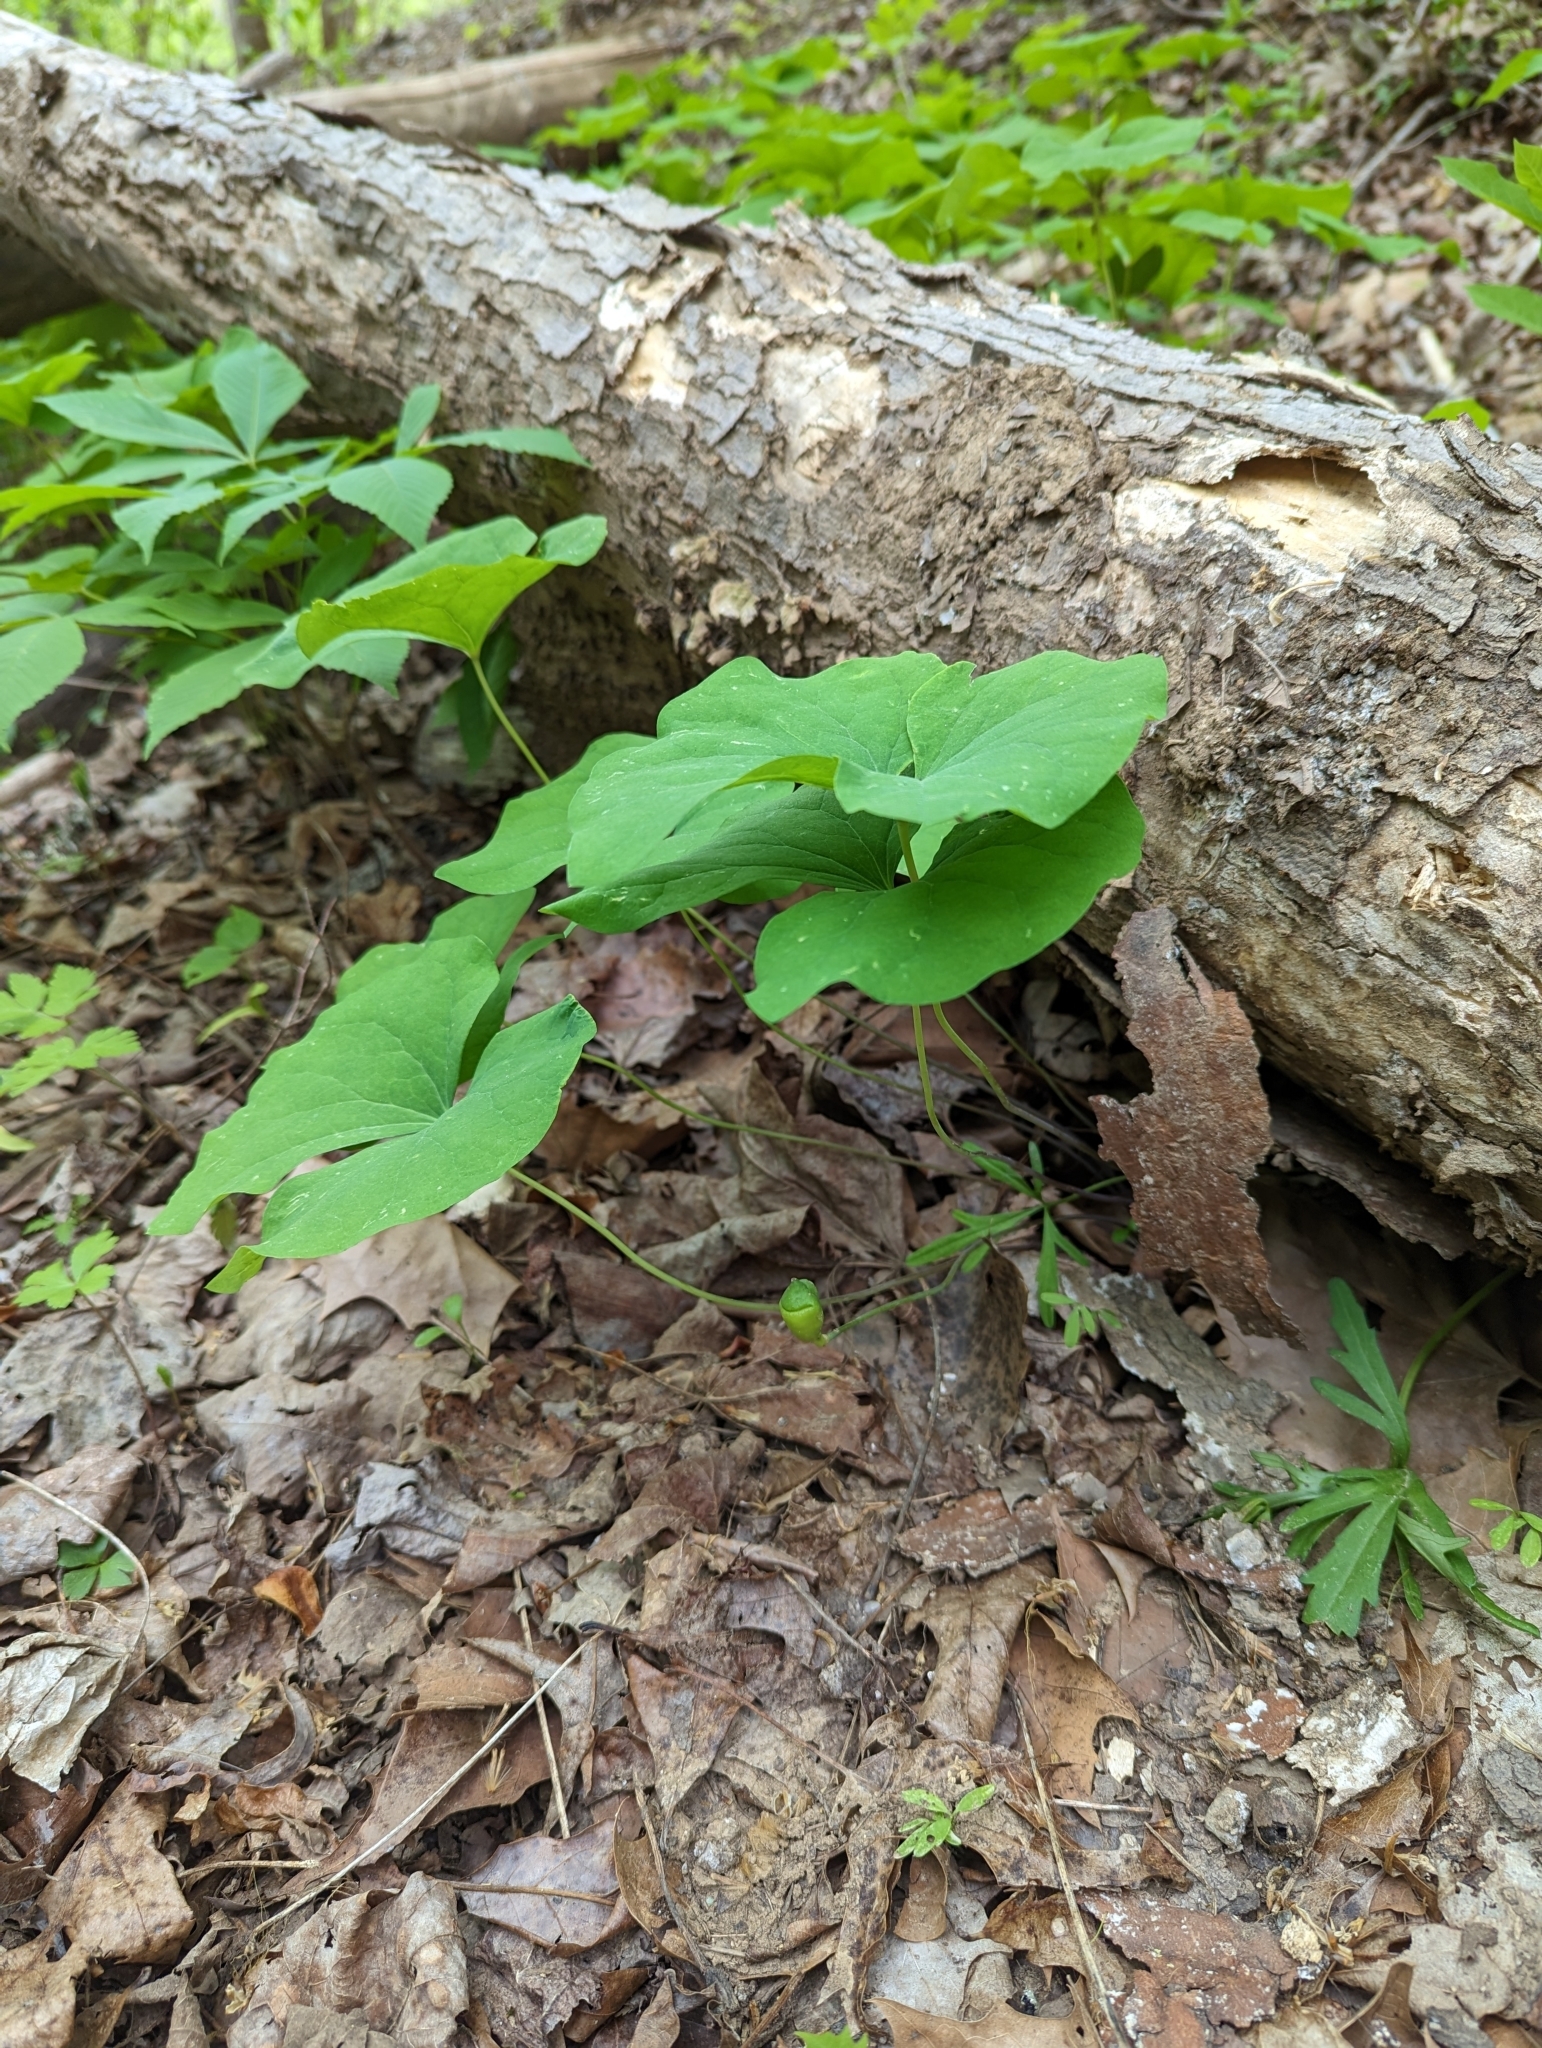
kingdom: Plantae
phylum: Tracheophyta
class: Magnoliopsida
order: Ranunculales
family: Berberidaceae
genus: Jeffersonia
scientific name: Jeffersonia diphylla
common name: Rheumatism-root
